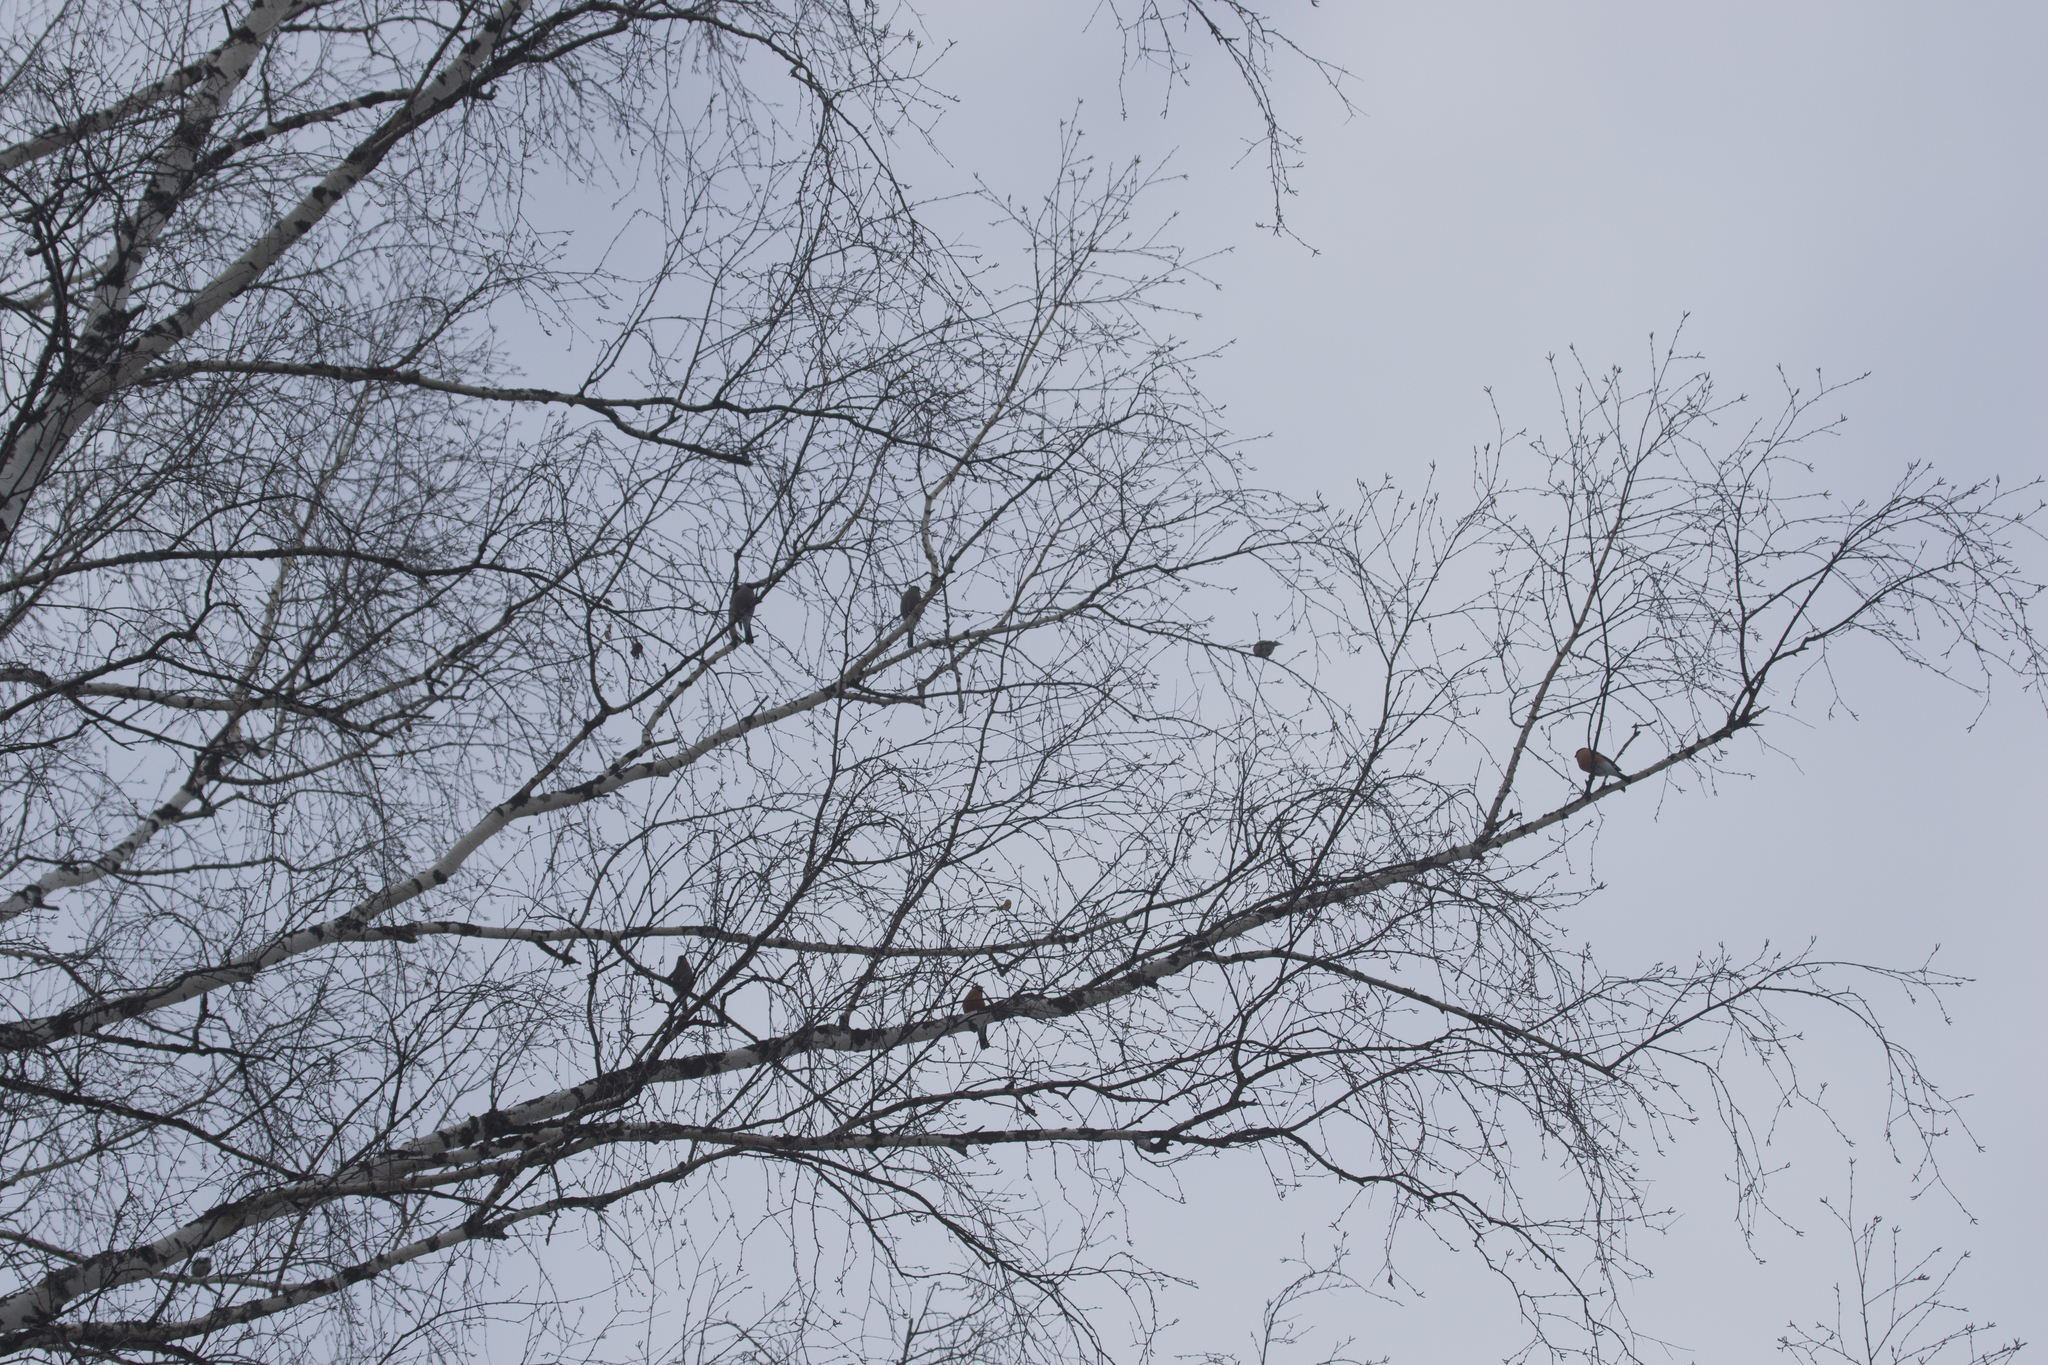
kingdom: Animalia
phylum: Chordata
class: Aves
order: Passeriformes
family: Fringillidae
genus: Pyrrhula
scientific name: Pyrrhula pyrrhula
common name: Eurasian bullfinch
